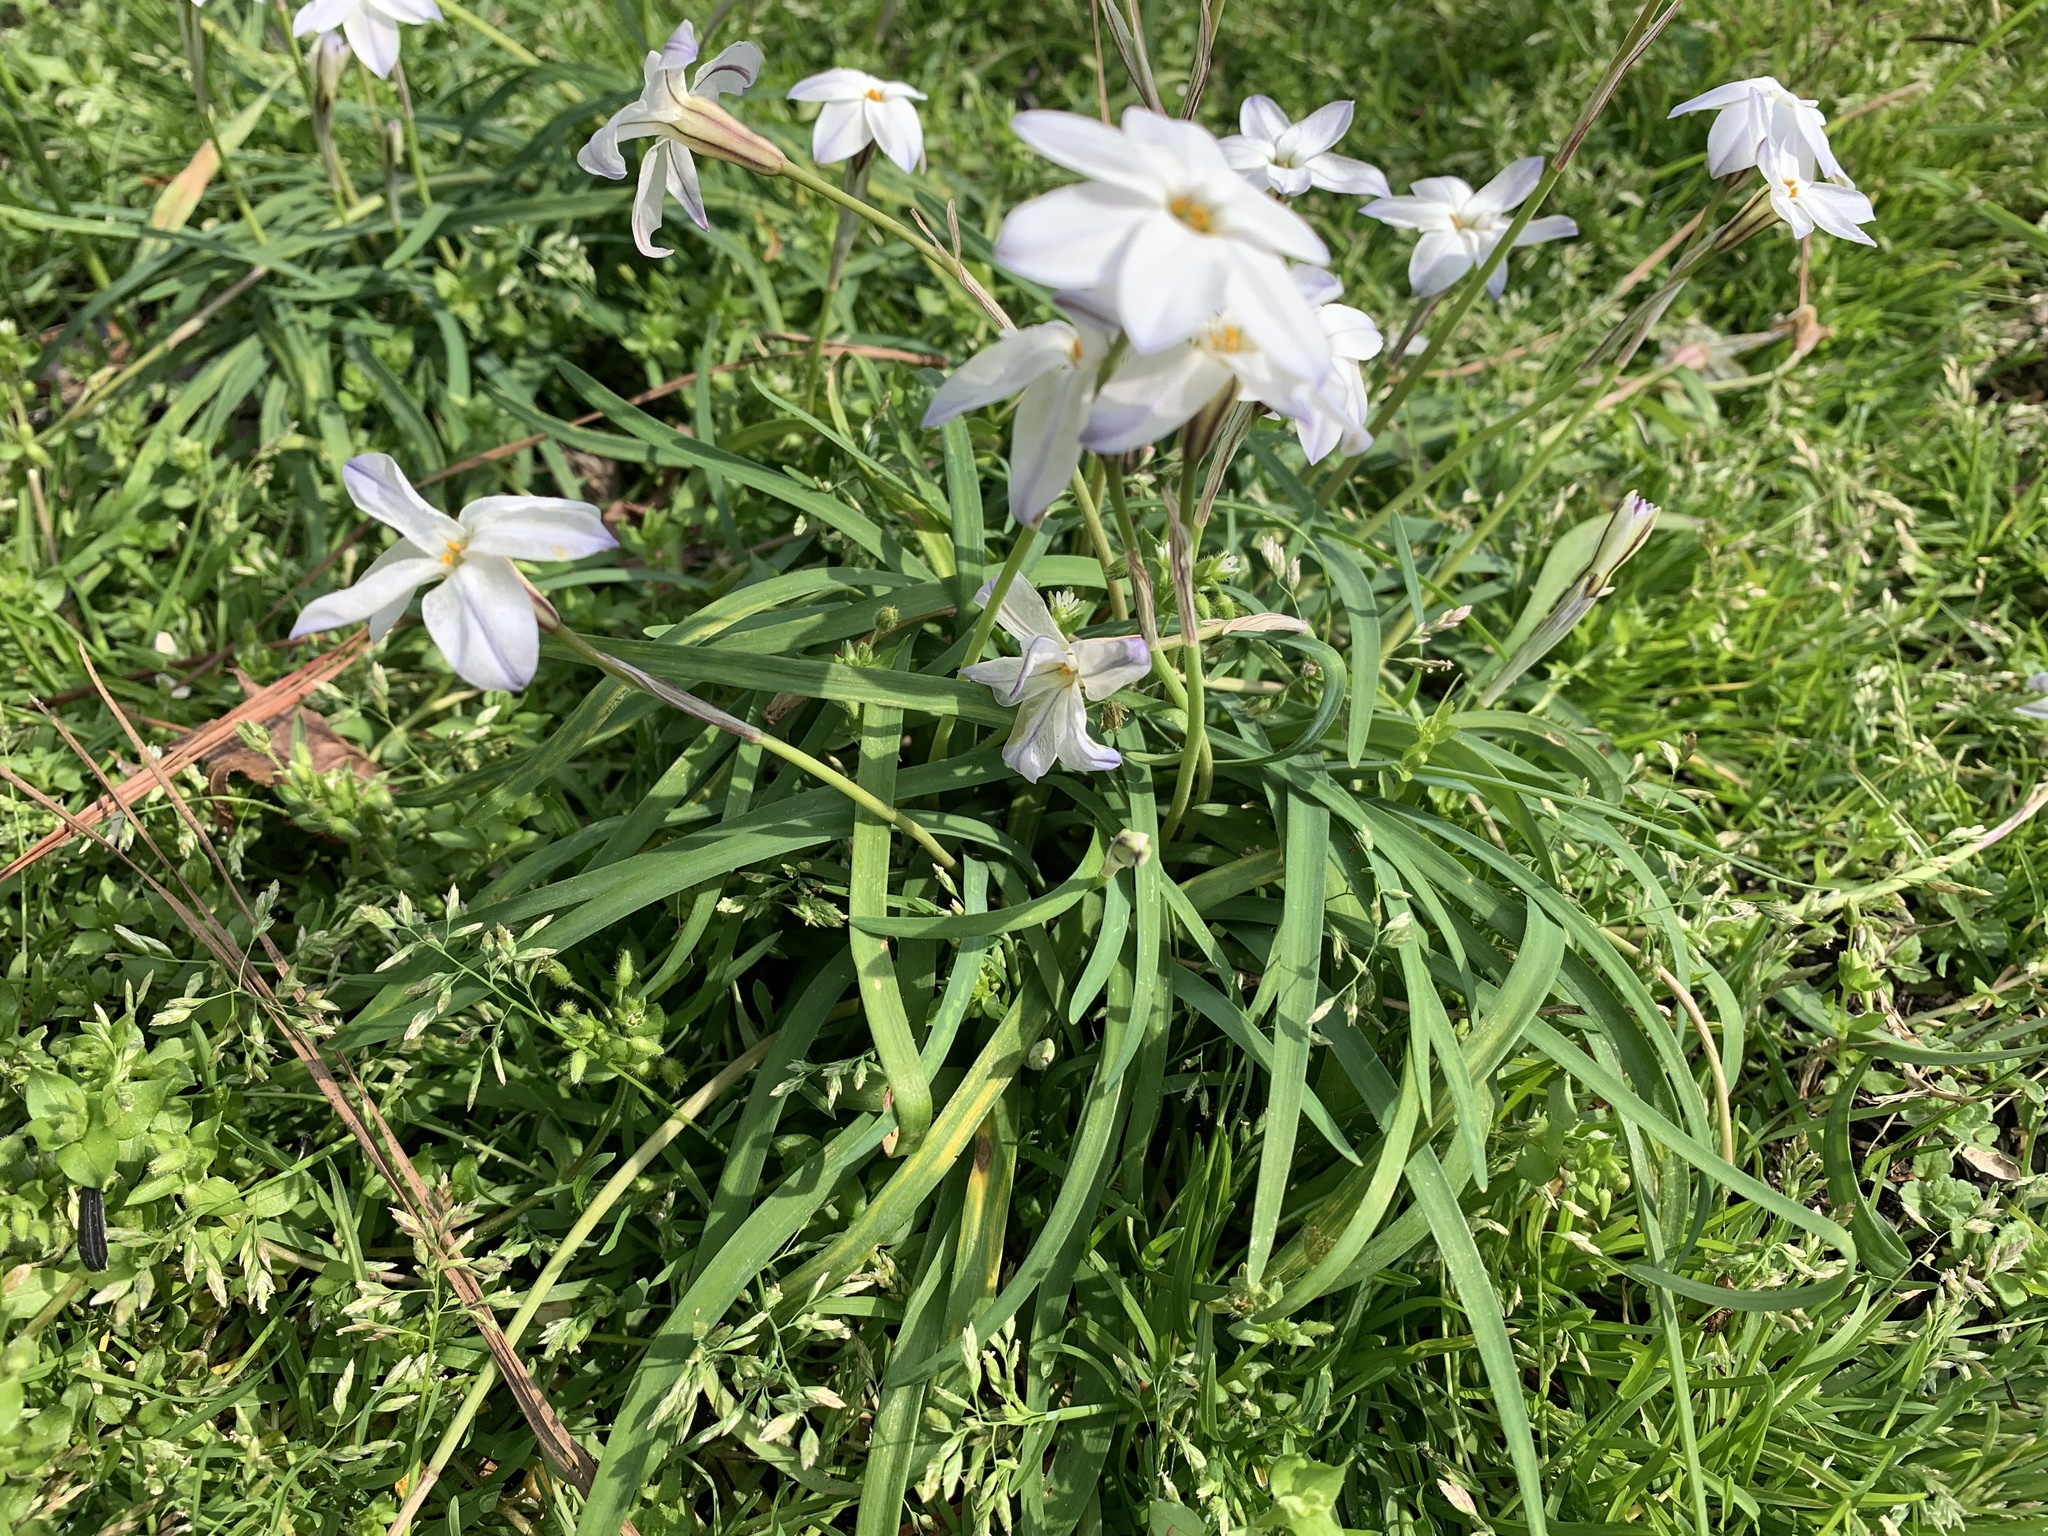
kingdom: Plantae
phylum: Tracheophyta
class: Liliopsida
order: Asparagales
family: Amaryllidaceae
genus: Ipheion
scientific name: Ipheion uniflorum
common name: Spring starflower
